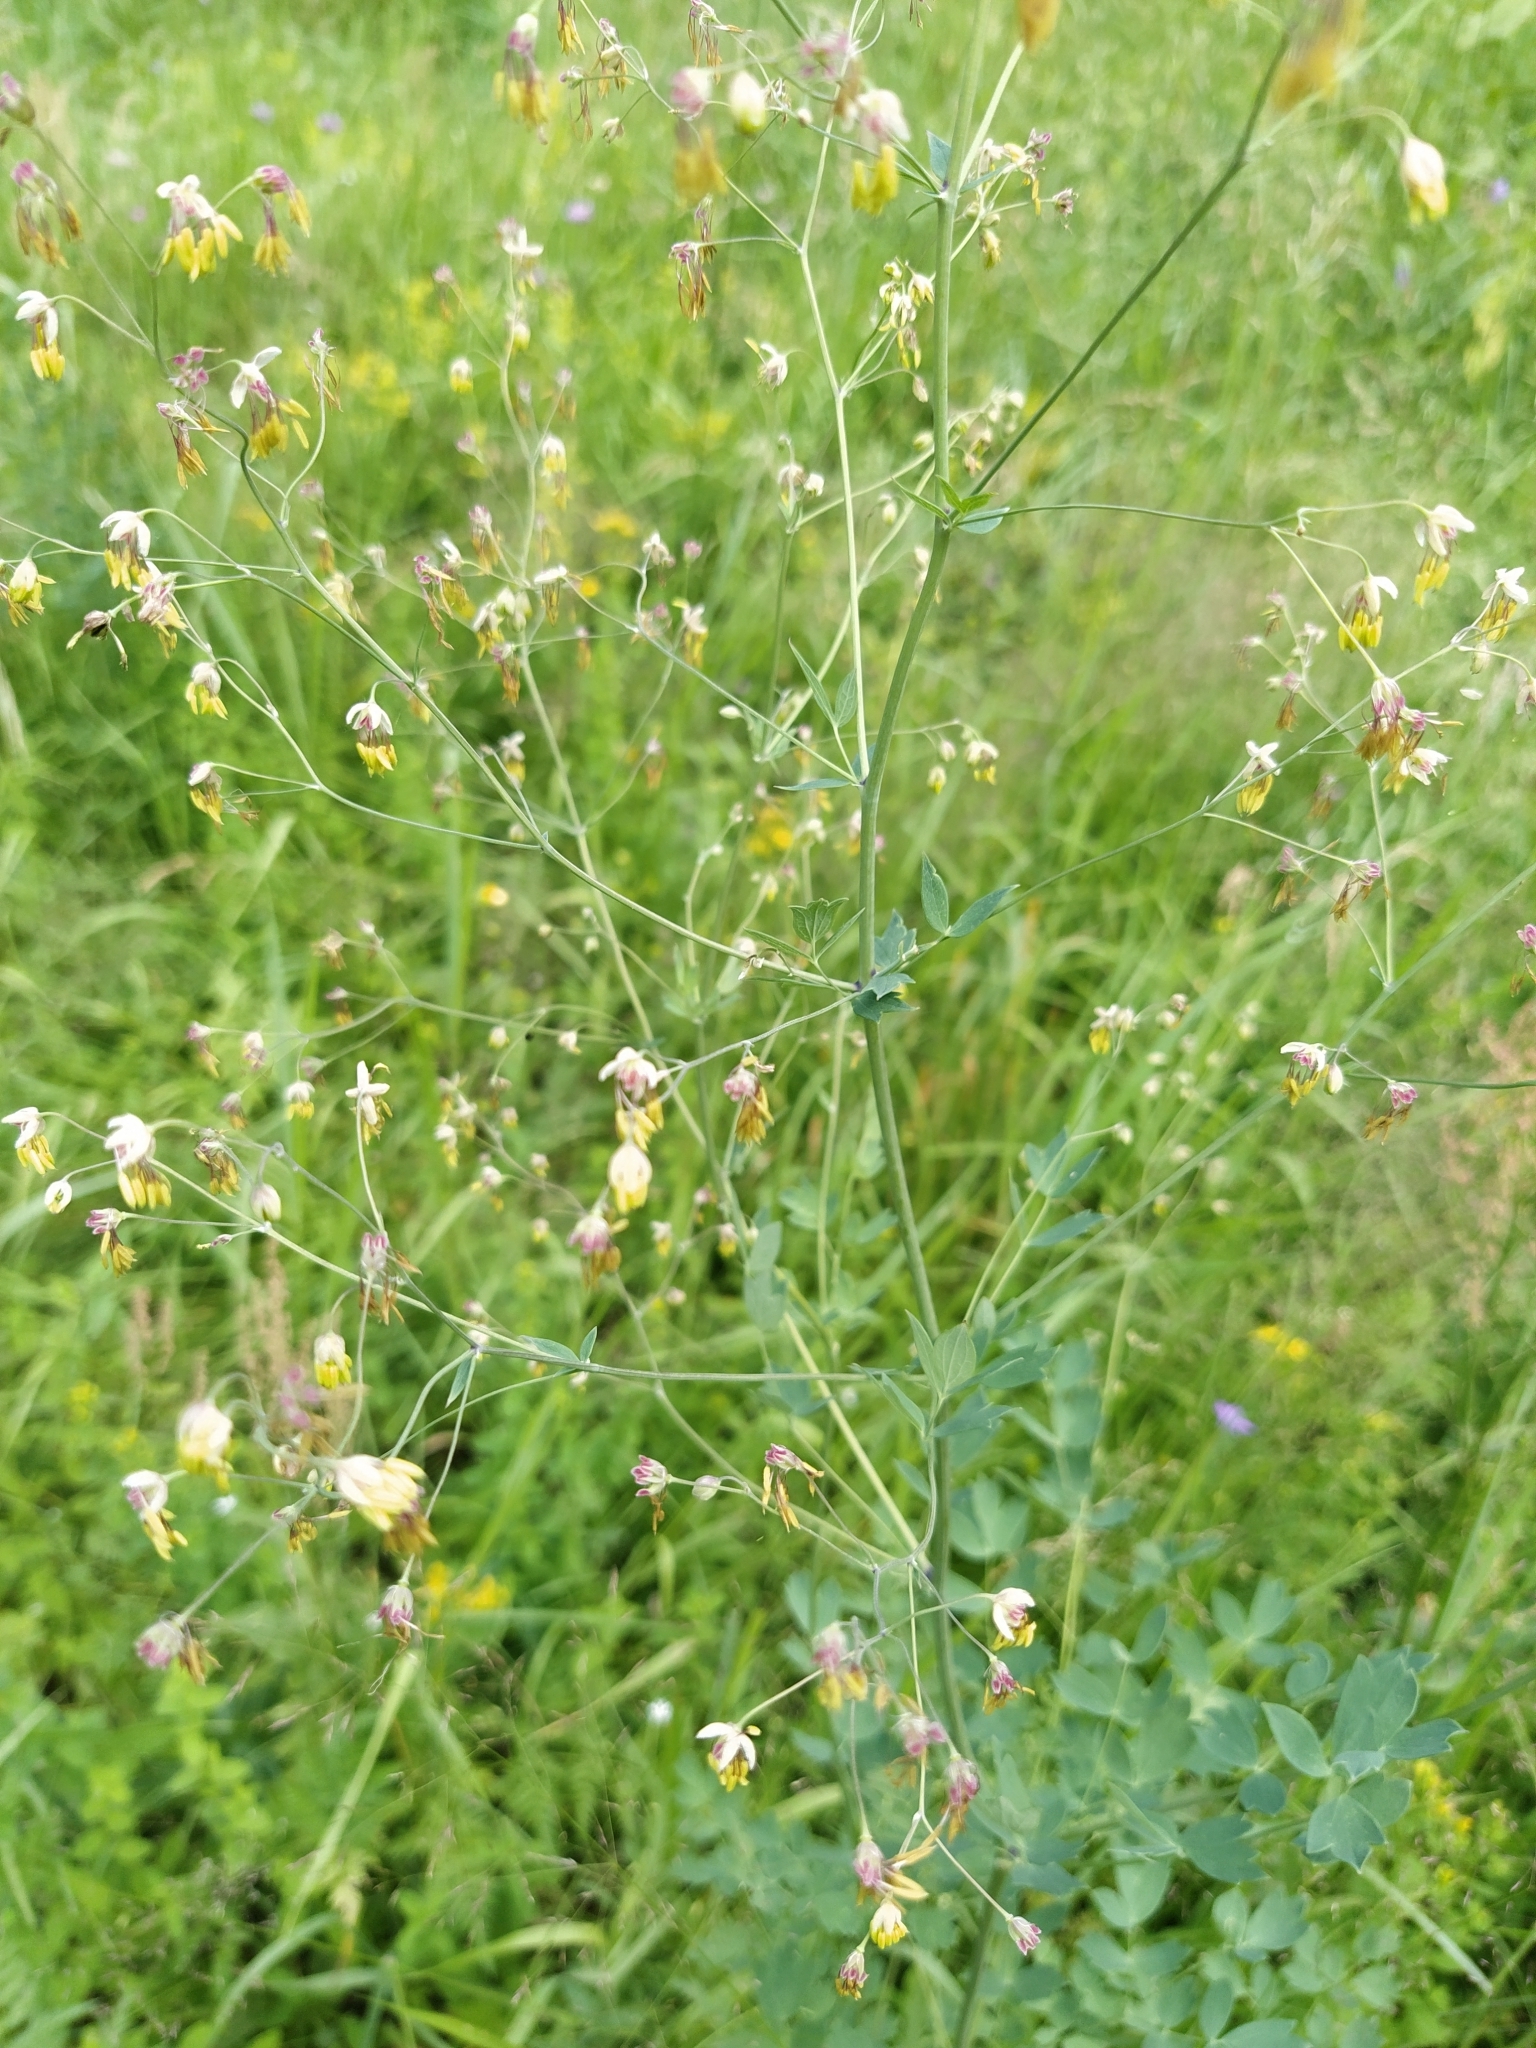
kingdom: Plantae
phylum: Tracheophyta
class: Magnoliopsida
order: Ranunculales
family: Ranunculaceae
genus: Thalictrum
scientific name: Thalictrum minus
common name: Lesser meadow-rue
